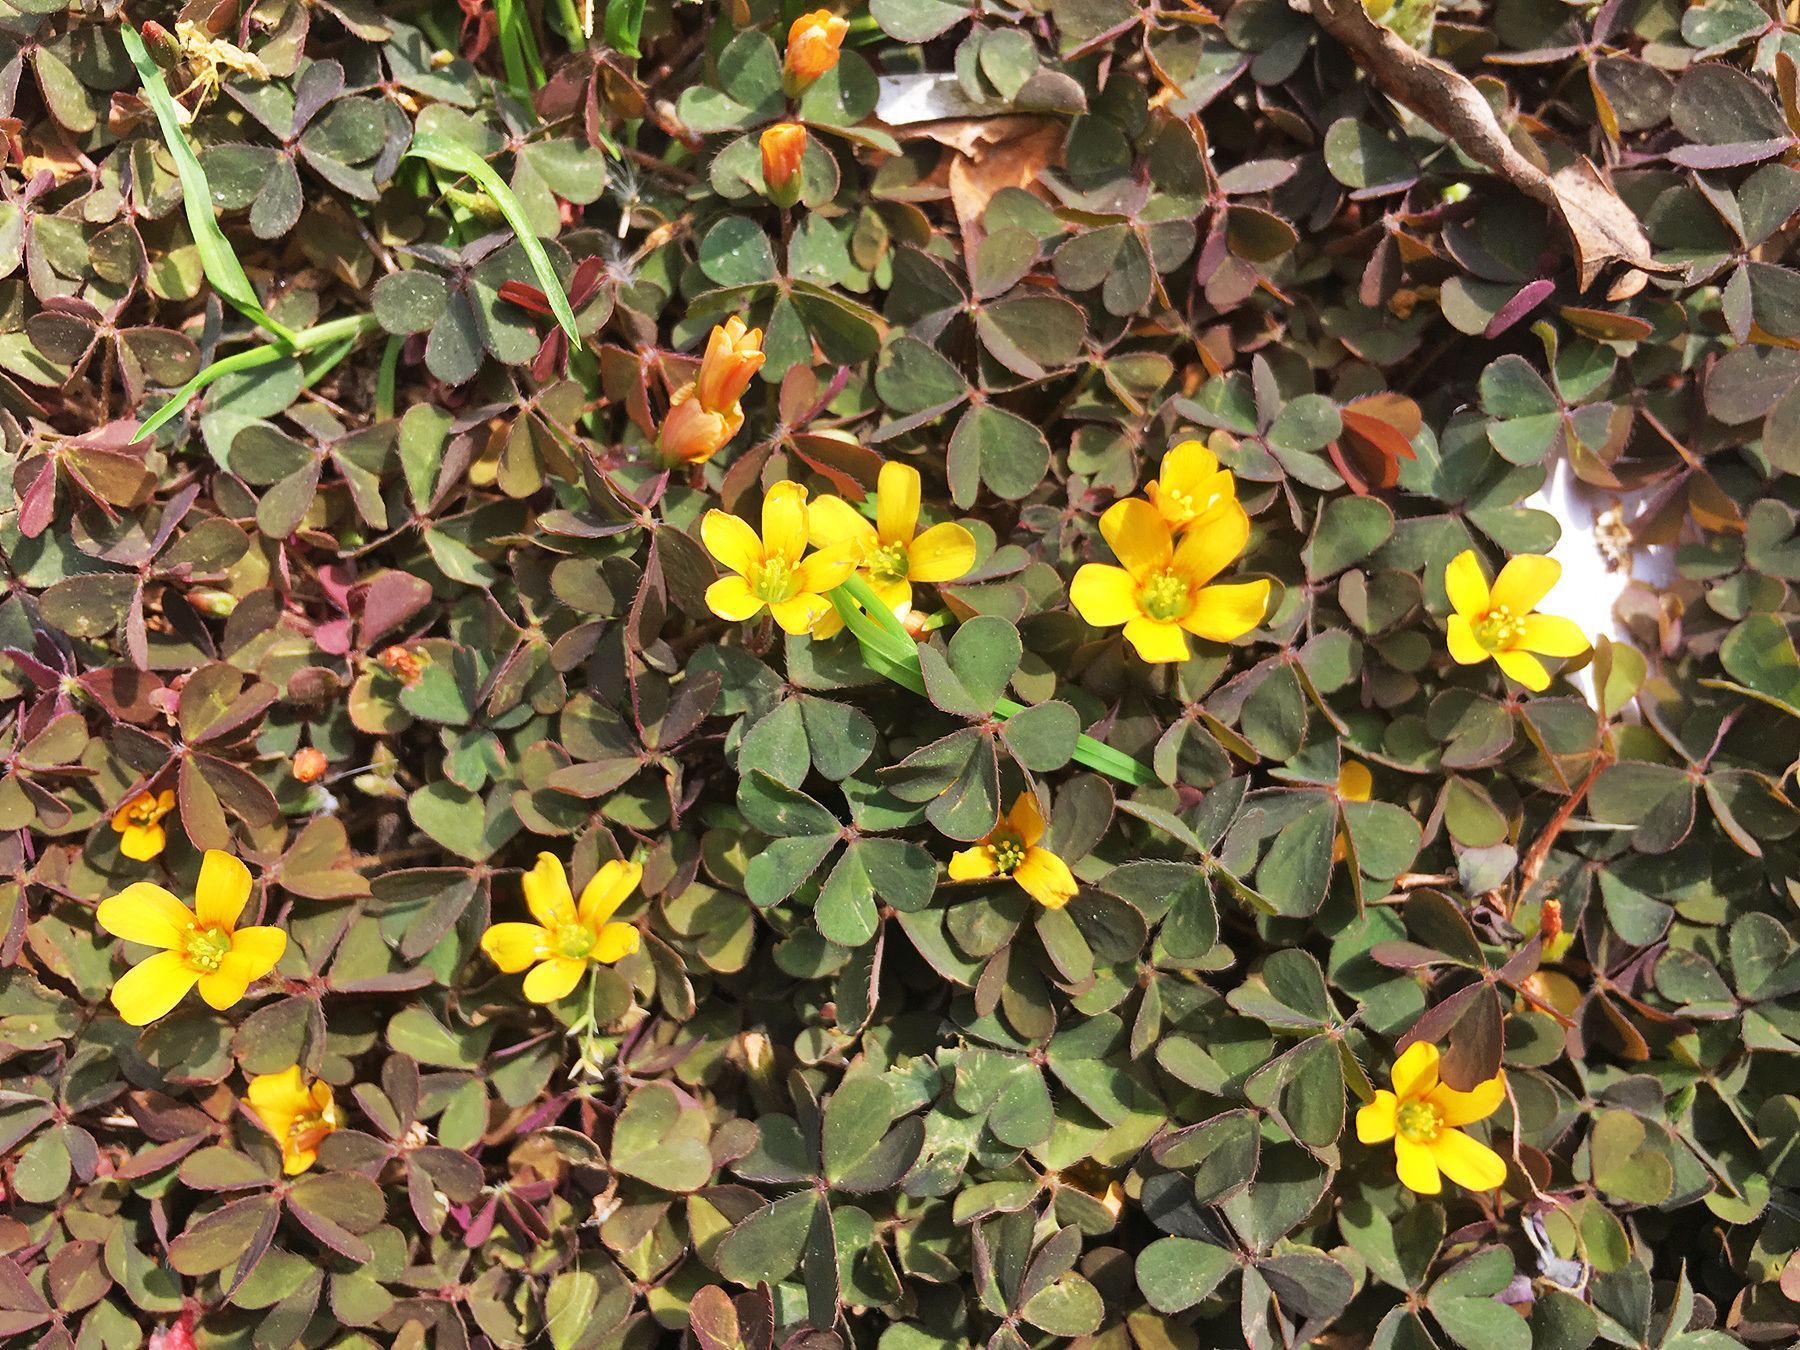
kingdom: Plantae
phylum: Tracheophyta
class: Magnoliopsida
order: Oxalidales
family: Oxalidaceae
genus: Oxalis
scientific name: Oxalis corniculata
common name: Procumbent yellow-sorrel
